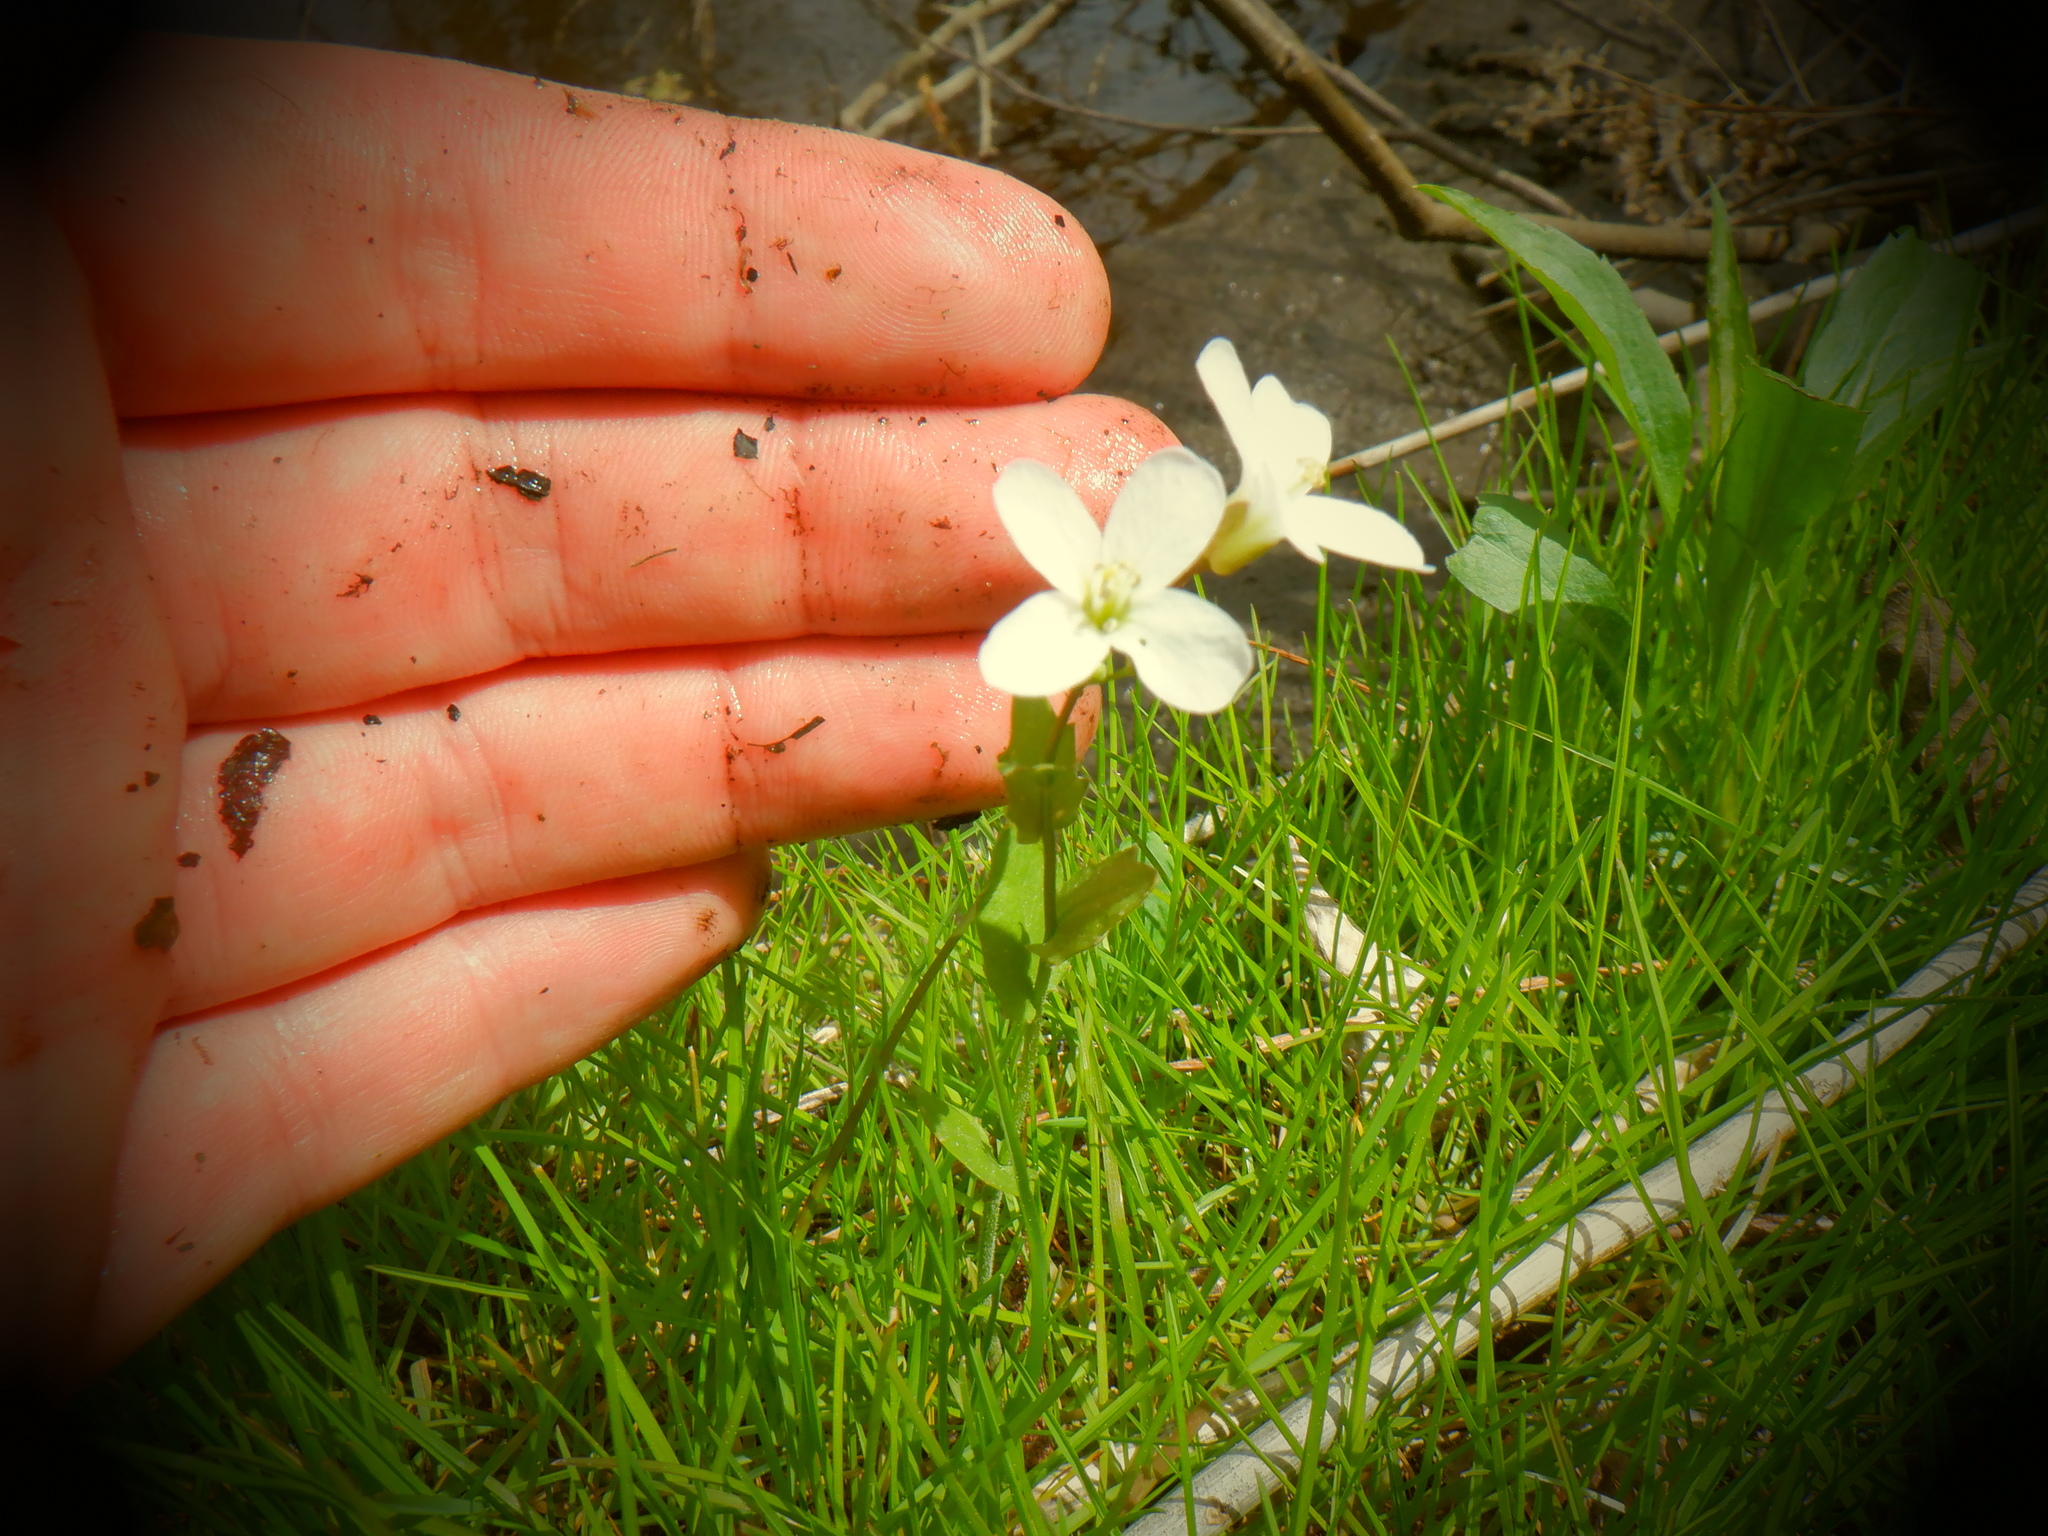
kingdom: Plantae
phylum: Tracheophyta
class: Magnoliopsida
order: Brassicales
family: Brassicaceae
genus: Cardamine
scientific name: Cardamine bulbosa
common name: Spring cress
